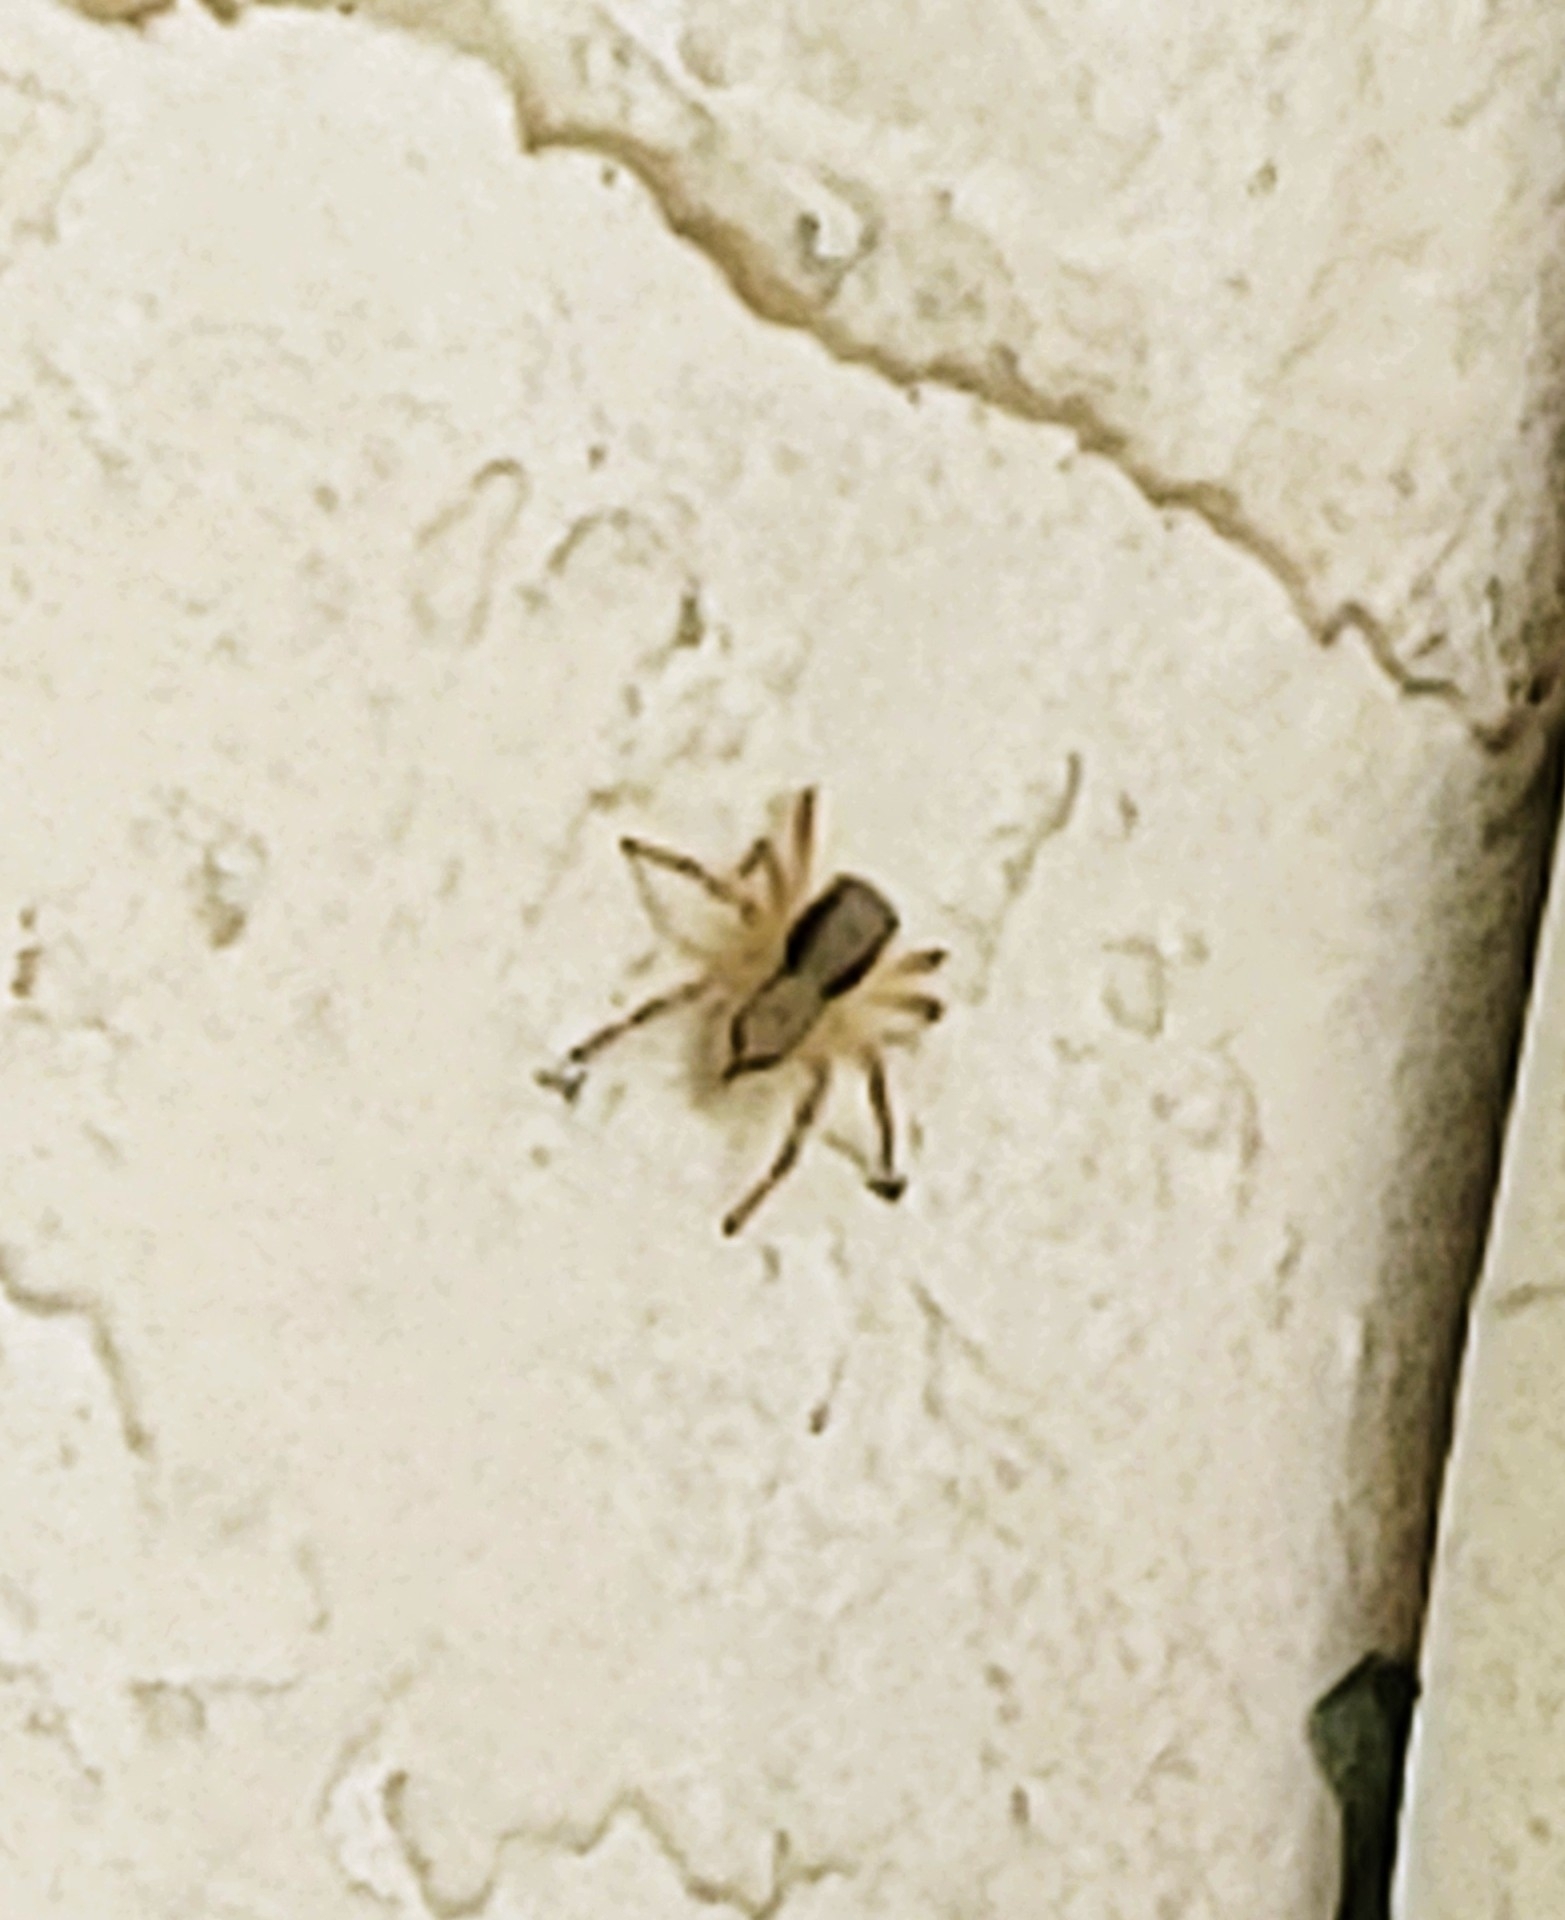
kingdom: Animalia
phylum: Arthropoda
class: Arachnida
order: Araneae
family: Salticidae
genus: Menemerus
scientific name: Menemerus bivittatus
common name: Gray wall jumper
